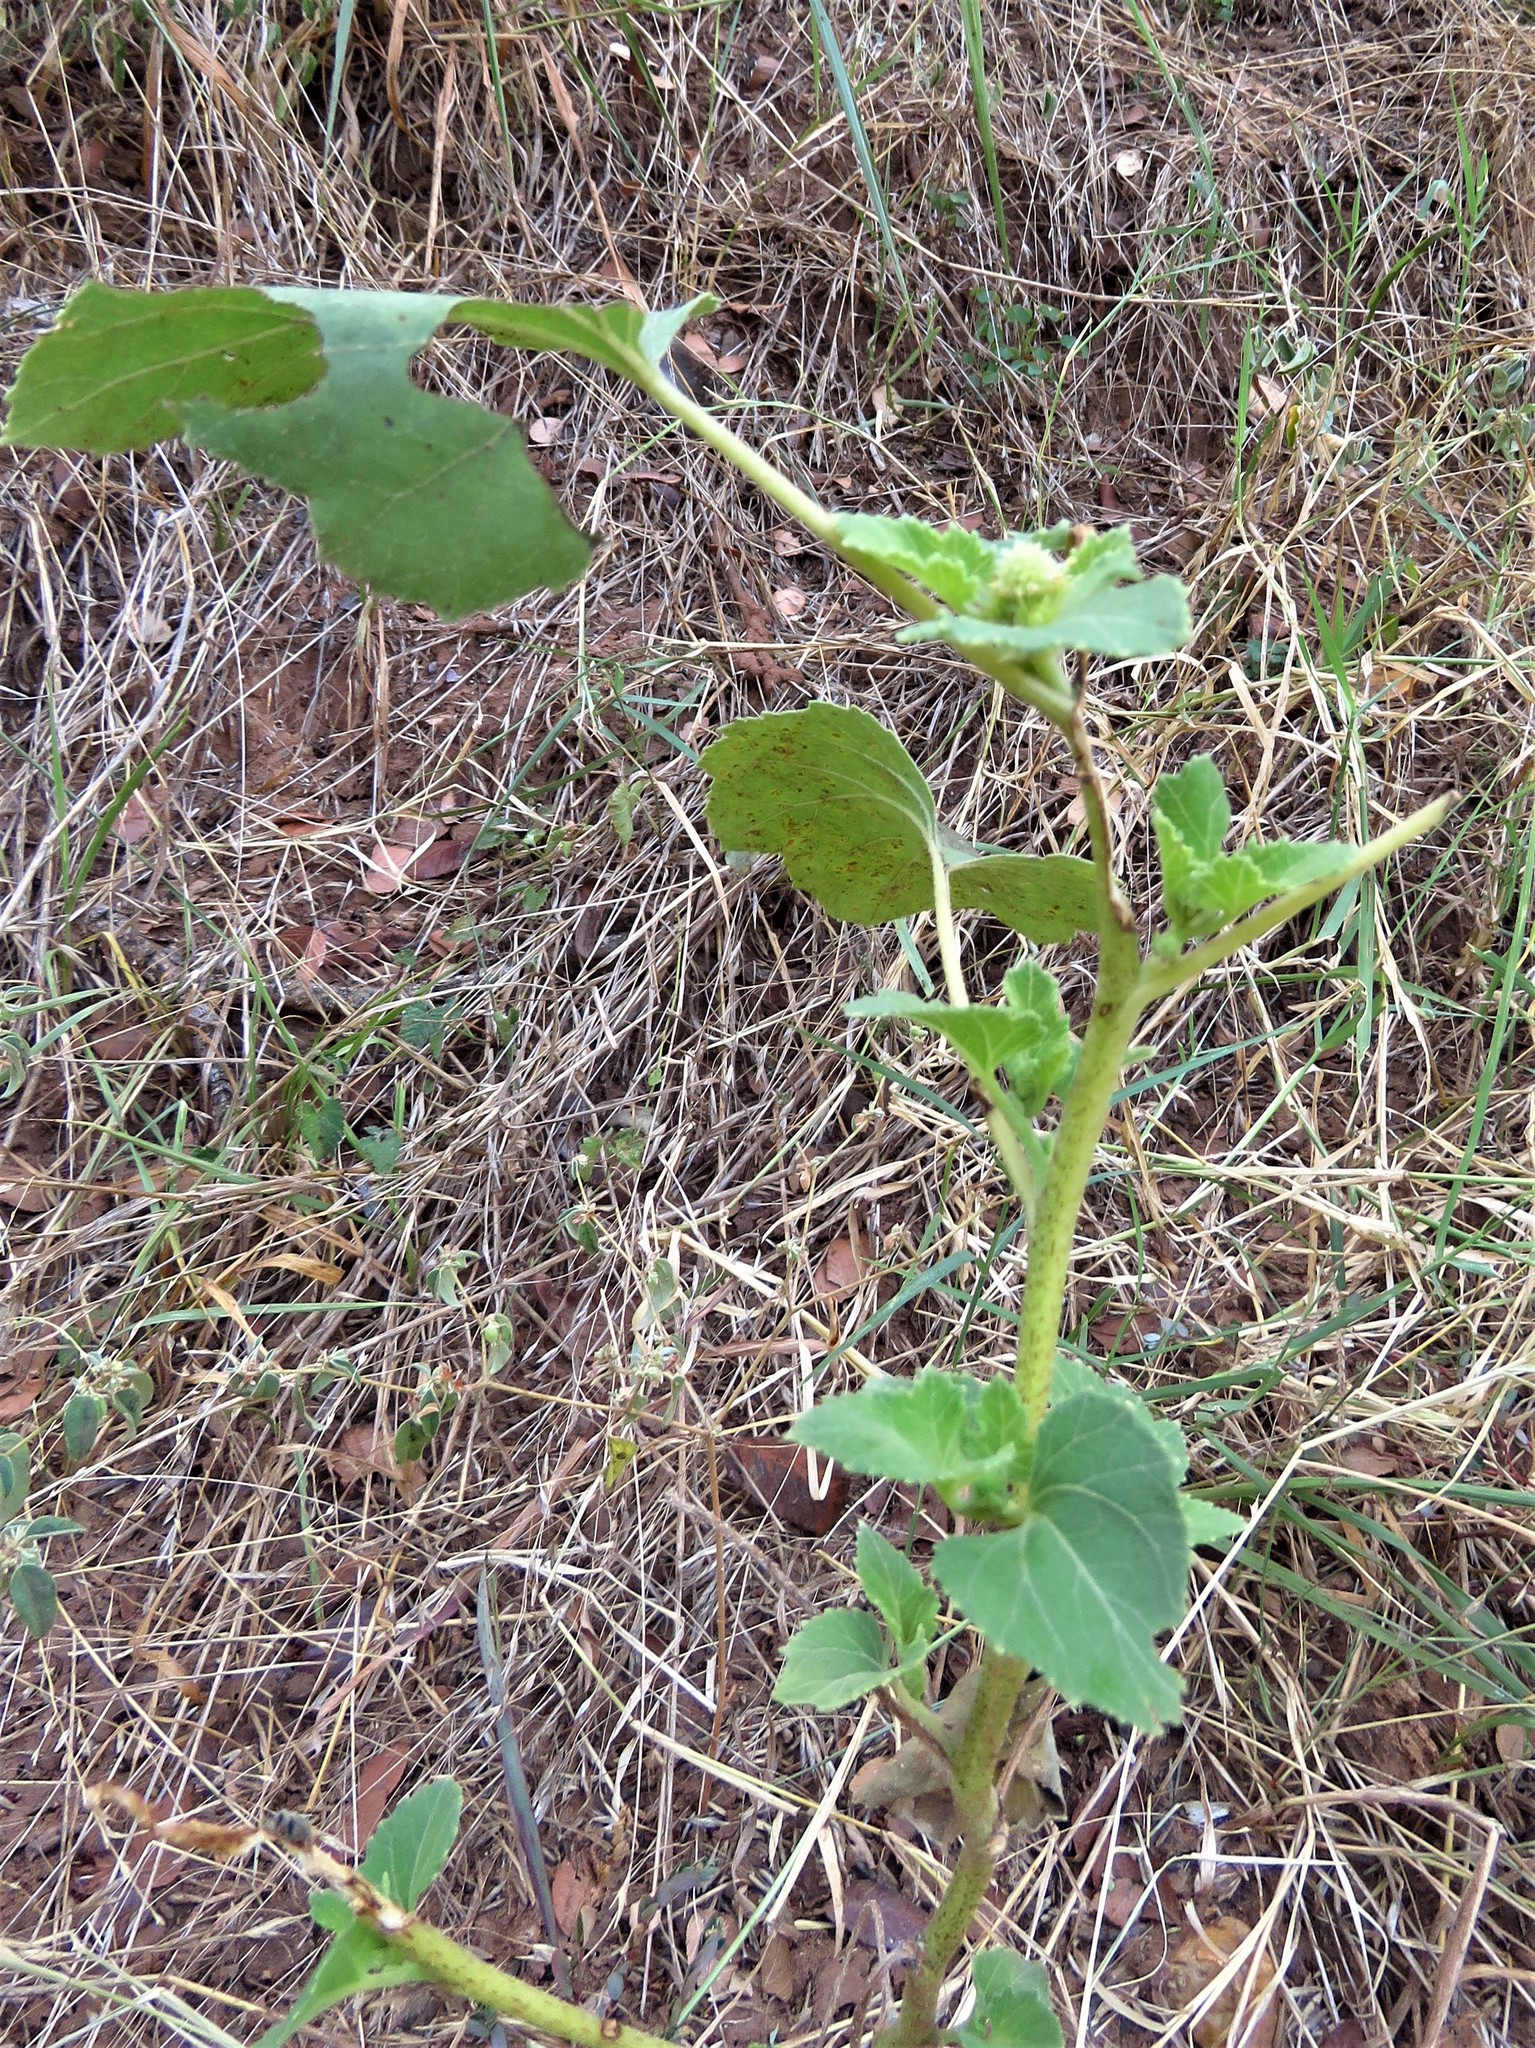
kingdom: Plantae
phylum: Tracheophyta
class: Magnoliopsida
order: Asterales
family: Asteraceae
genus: Xanthium
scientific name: Xanthium strumarium
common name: Rough cocklebur
